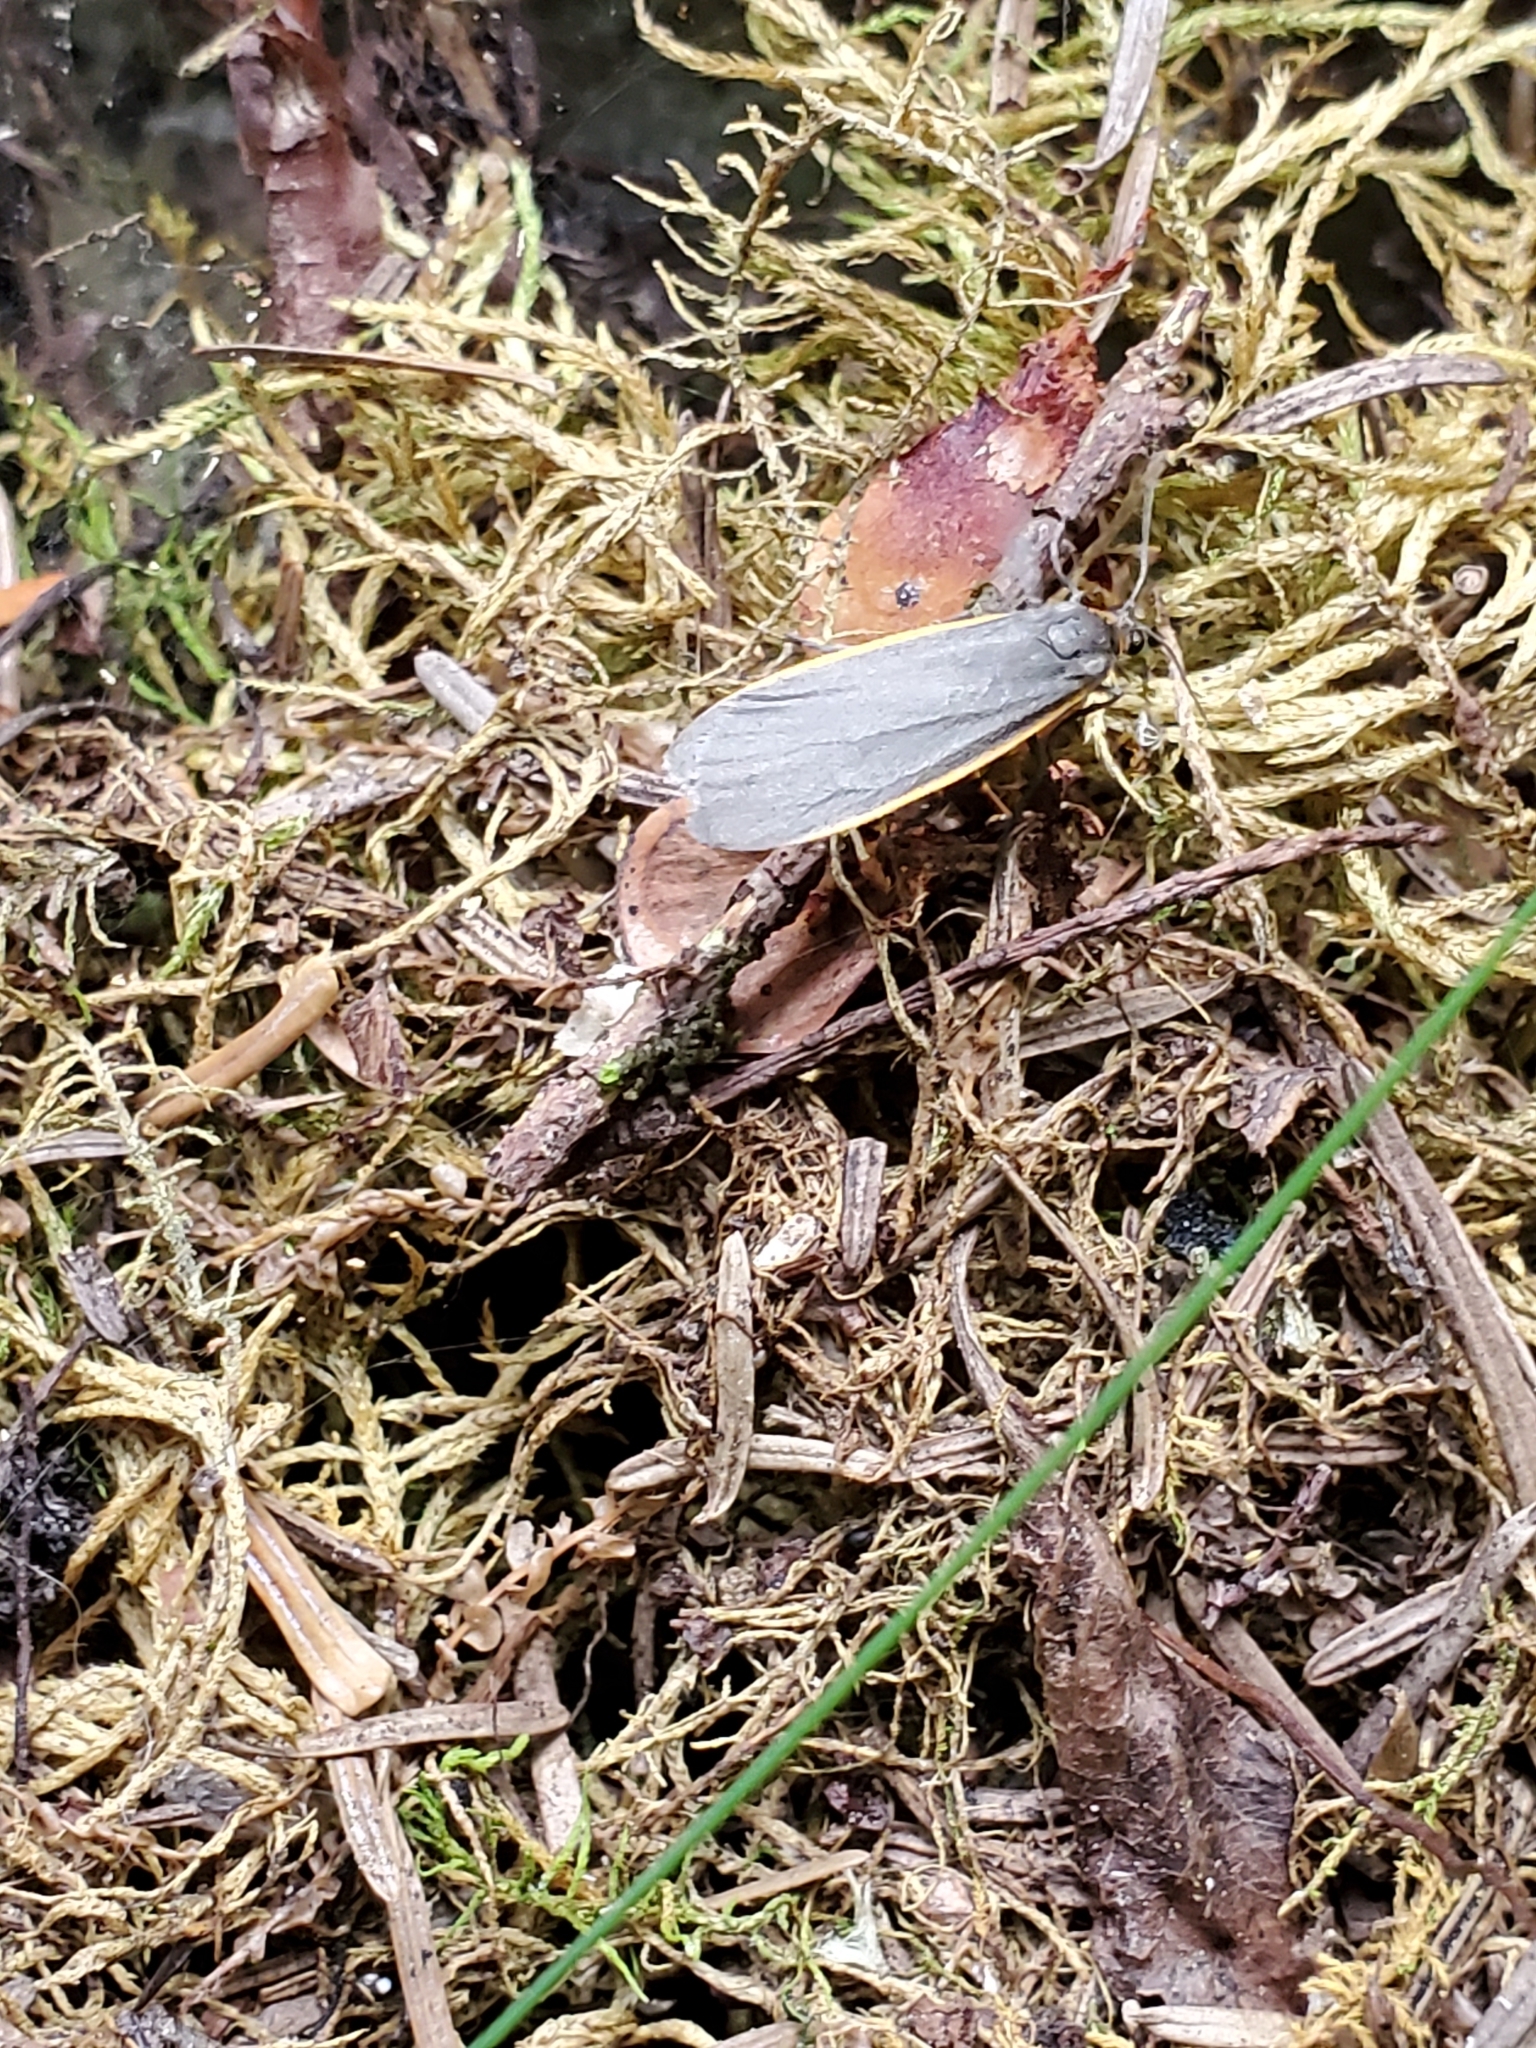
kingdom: Animalia
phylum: Arthropoda
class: Insecta
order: Lepidoptera
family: Erebidae
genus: Manulea
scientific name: Manulea bicolor
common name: Bicolored moth
